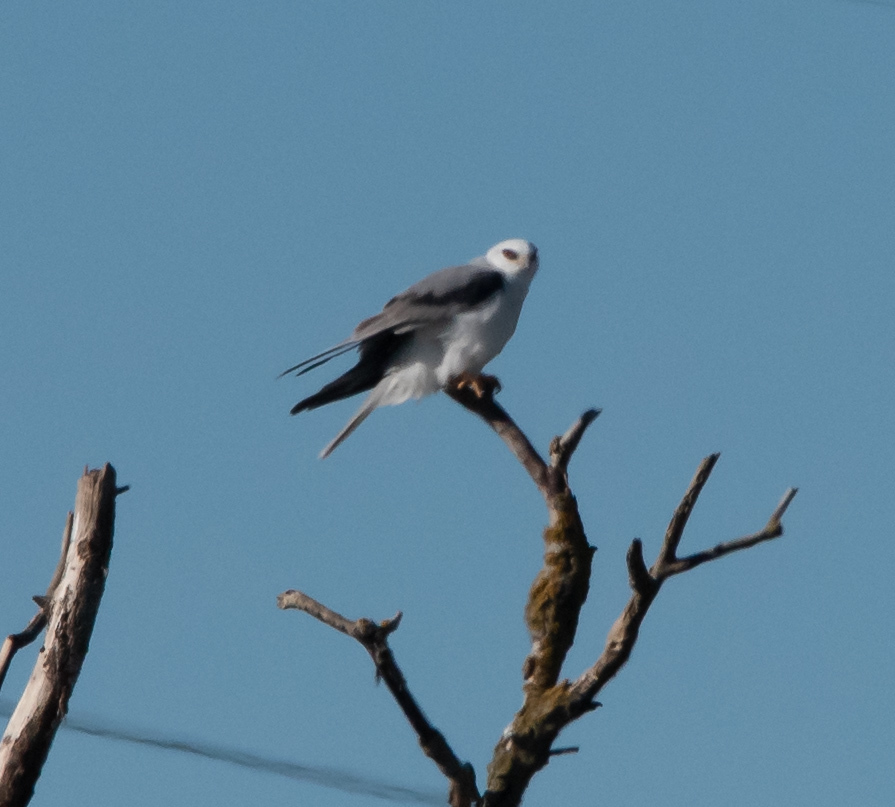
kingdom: Animalia
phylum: Chordata
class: Aves
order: Accipitriformes
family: Accipitridae
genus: Elanus
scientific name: Elanus leucurus
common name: White-tailed kite
